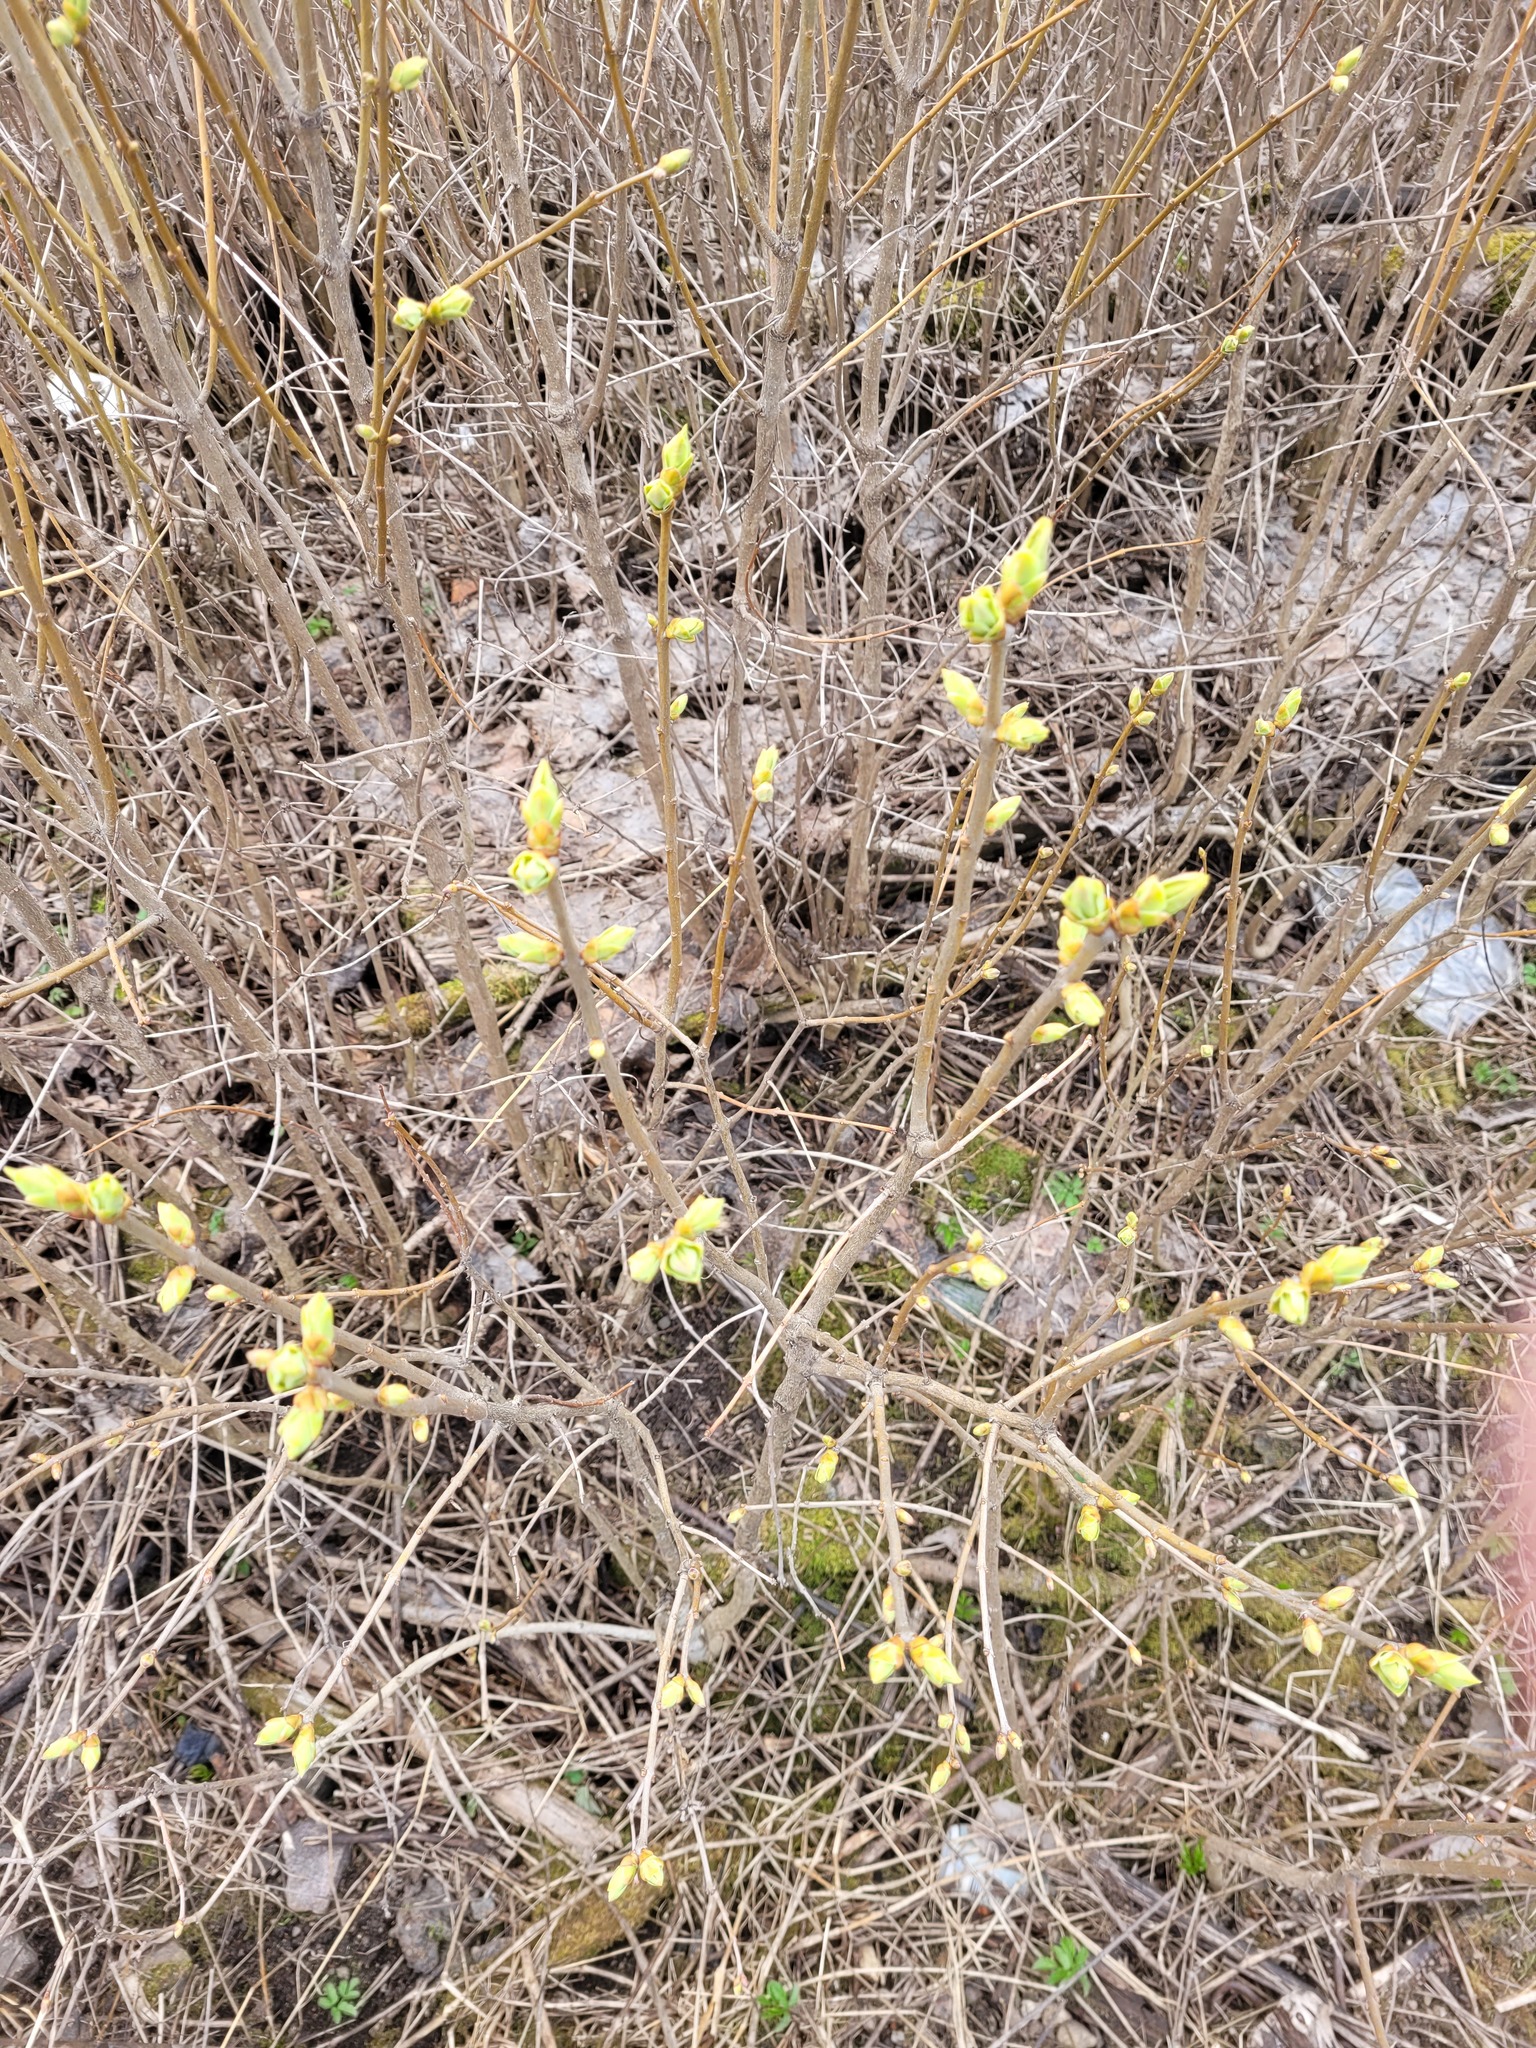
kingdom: Plantae
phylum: Tracheophyta
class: Magnoliopsida
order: Lamiales
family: Oleaceae
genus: Syringa
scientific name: Syringa vulgaris
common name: Common lilac
